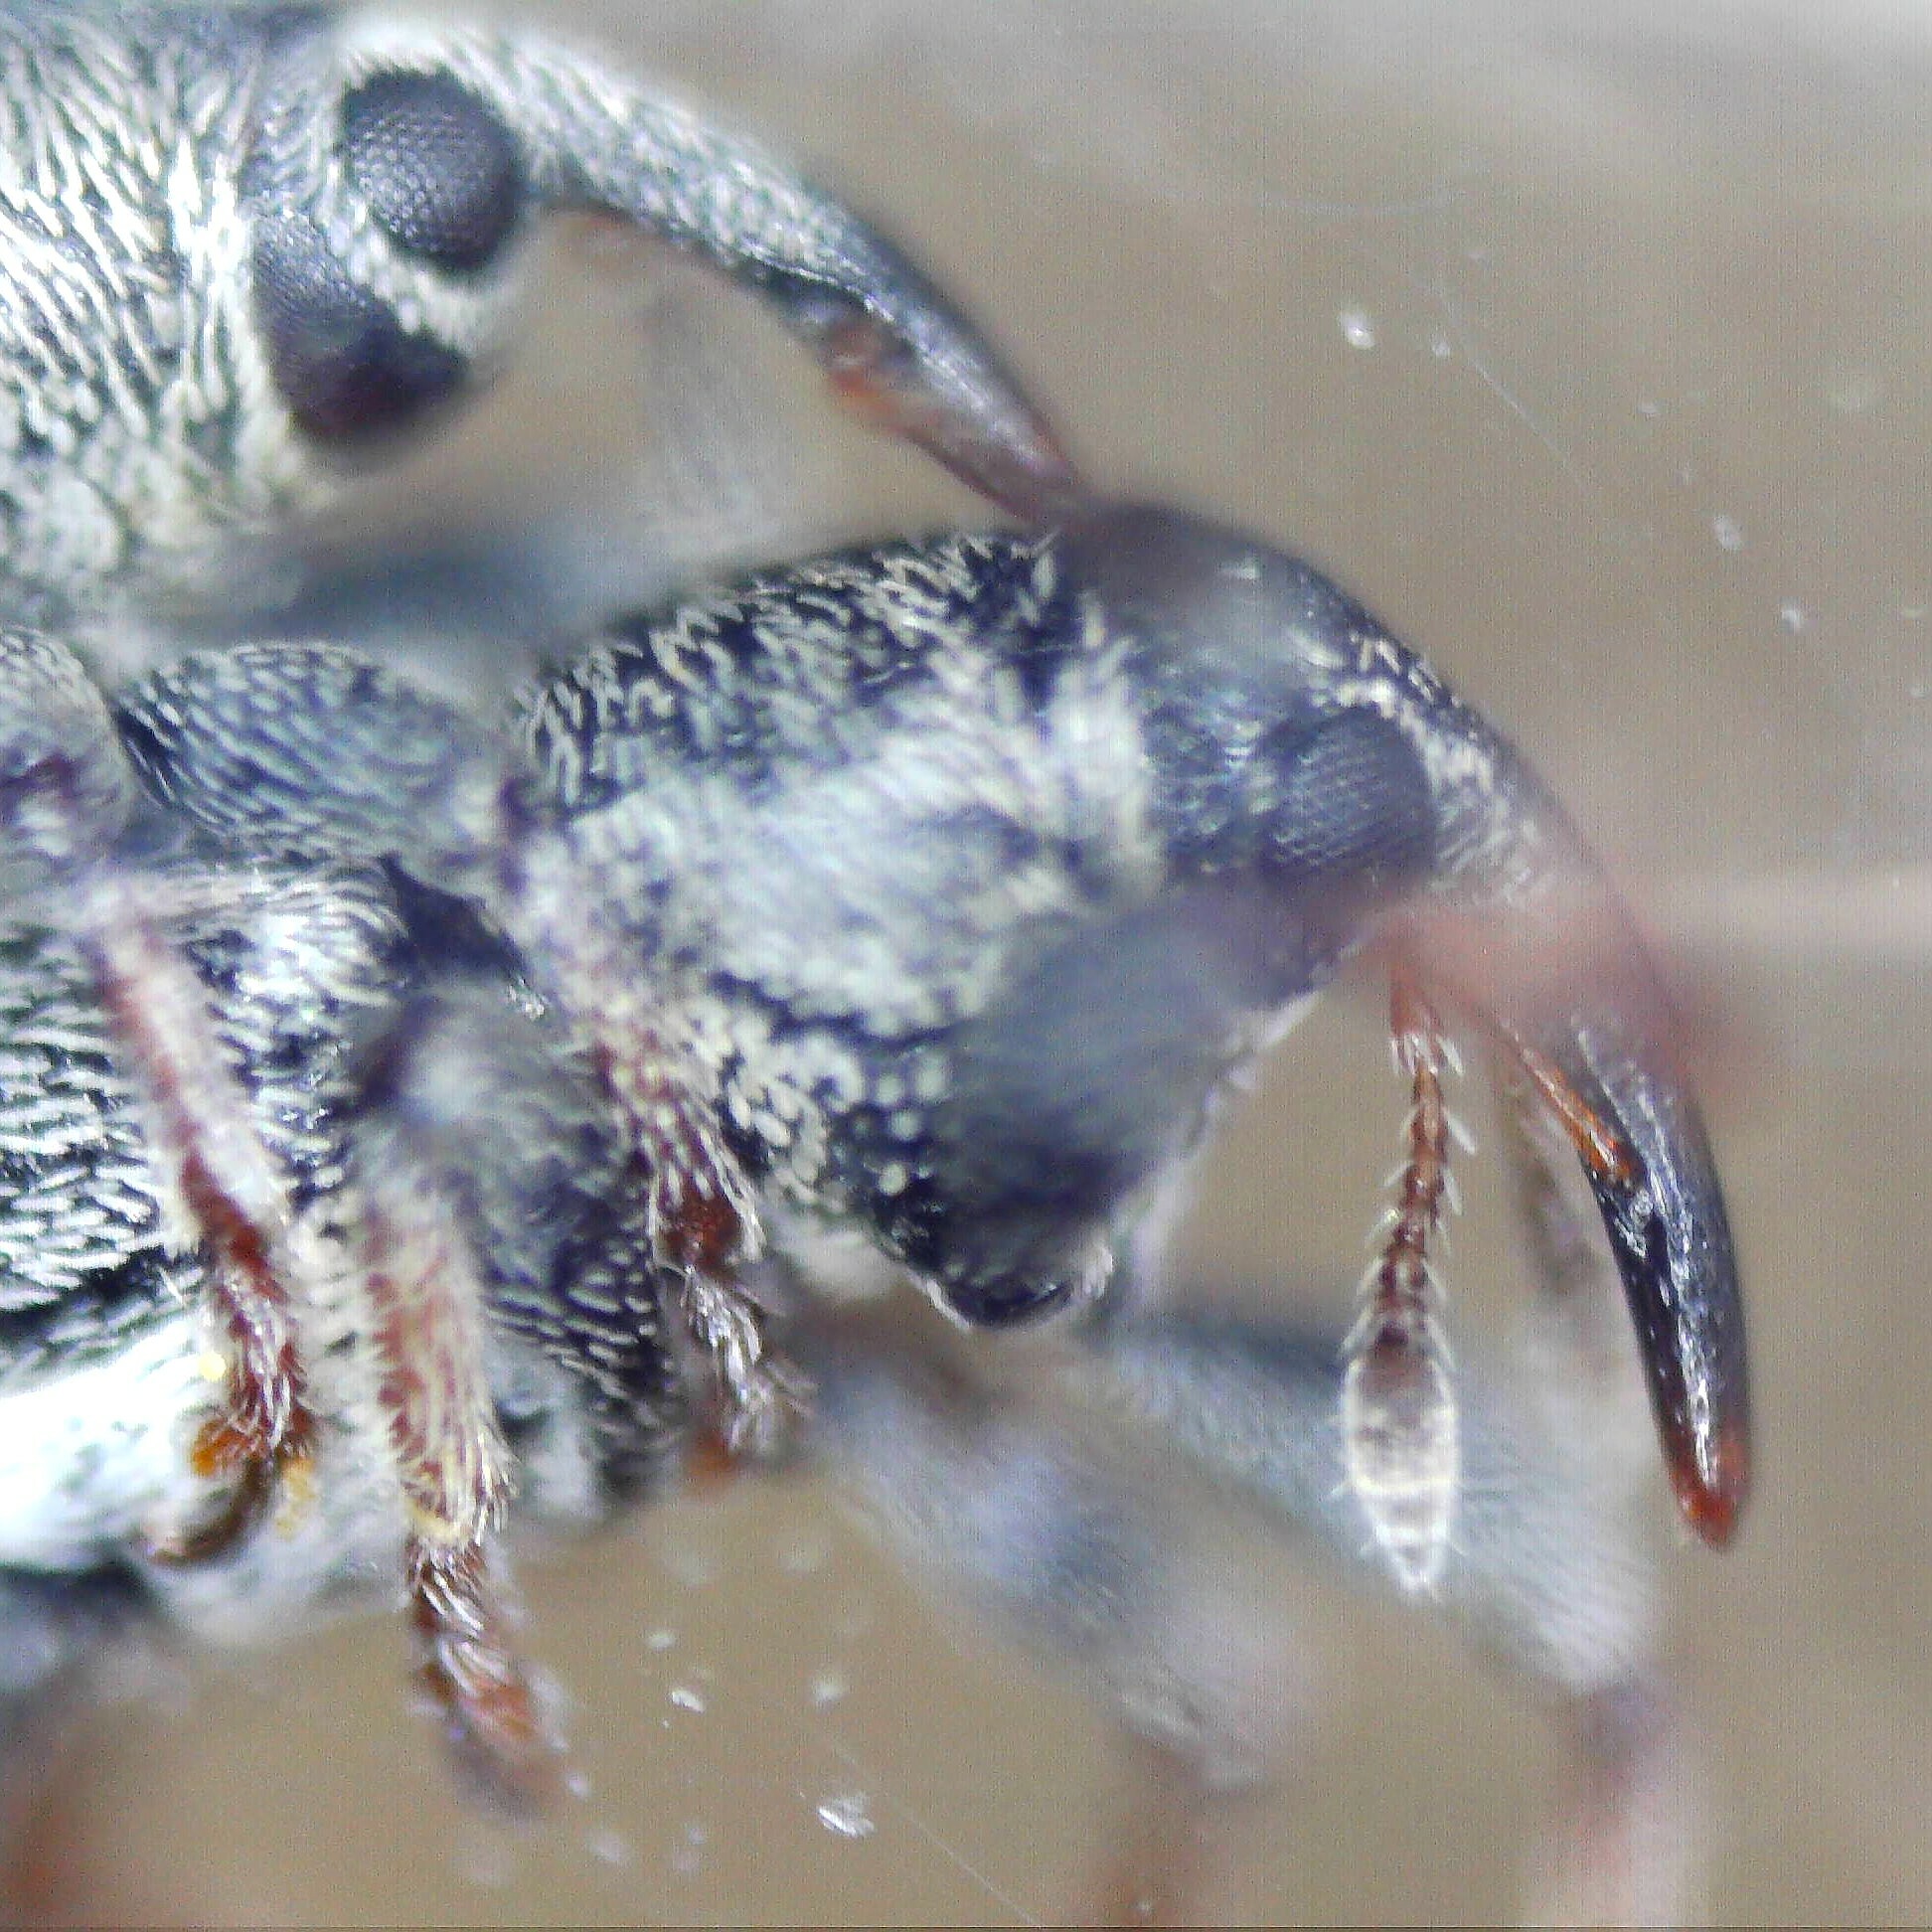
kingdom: Animalia
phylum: Arthropoda
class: Insecta
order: Coleoptera
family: Curculionidae
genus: Tychius
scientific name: Tychius picirostris
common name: Clover seed weevil
